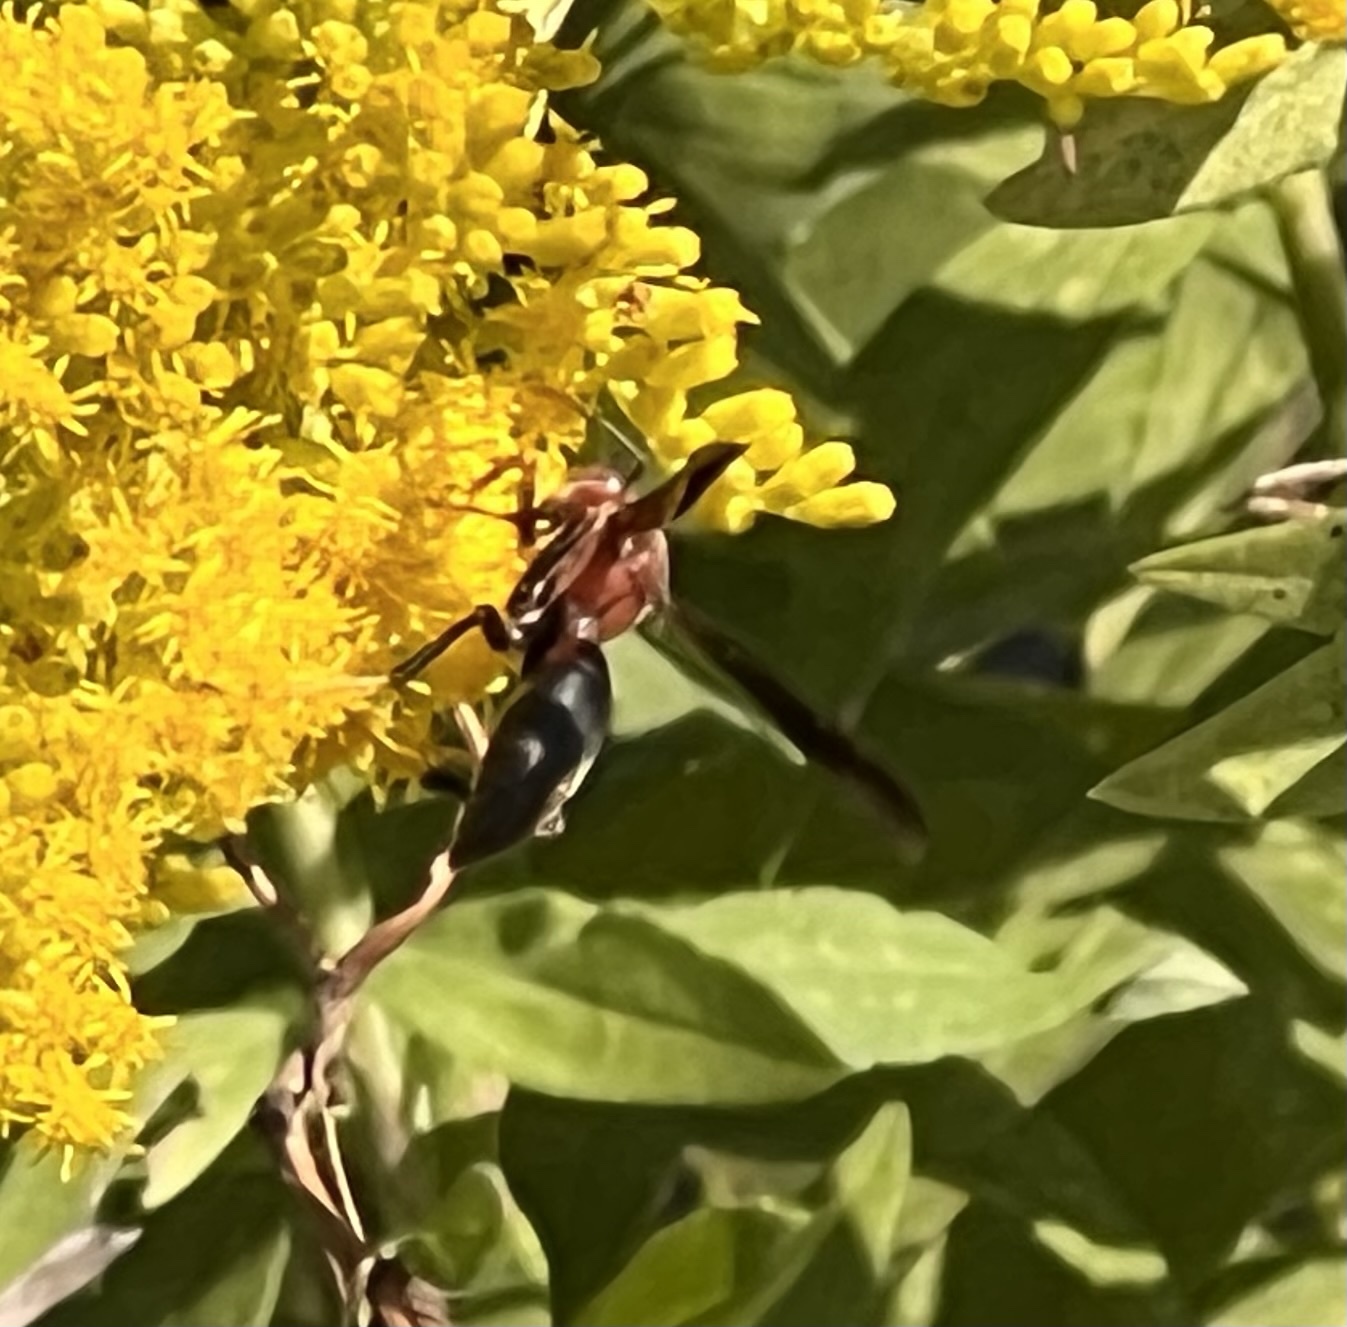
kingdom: Animalia
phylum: Arthropoda
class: Insecta
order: Hymenoptera
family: Eumenidae
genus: Polistes
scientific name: Polistes metricus
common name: Metric paper wasp
